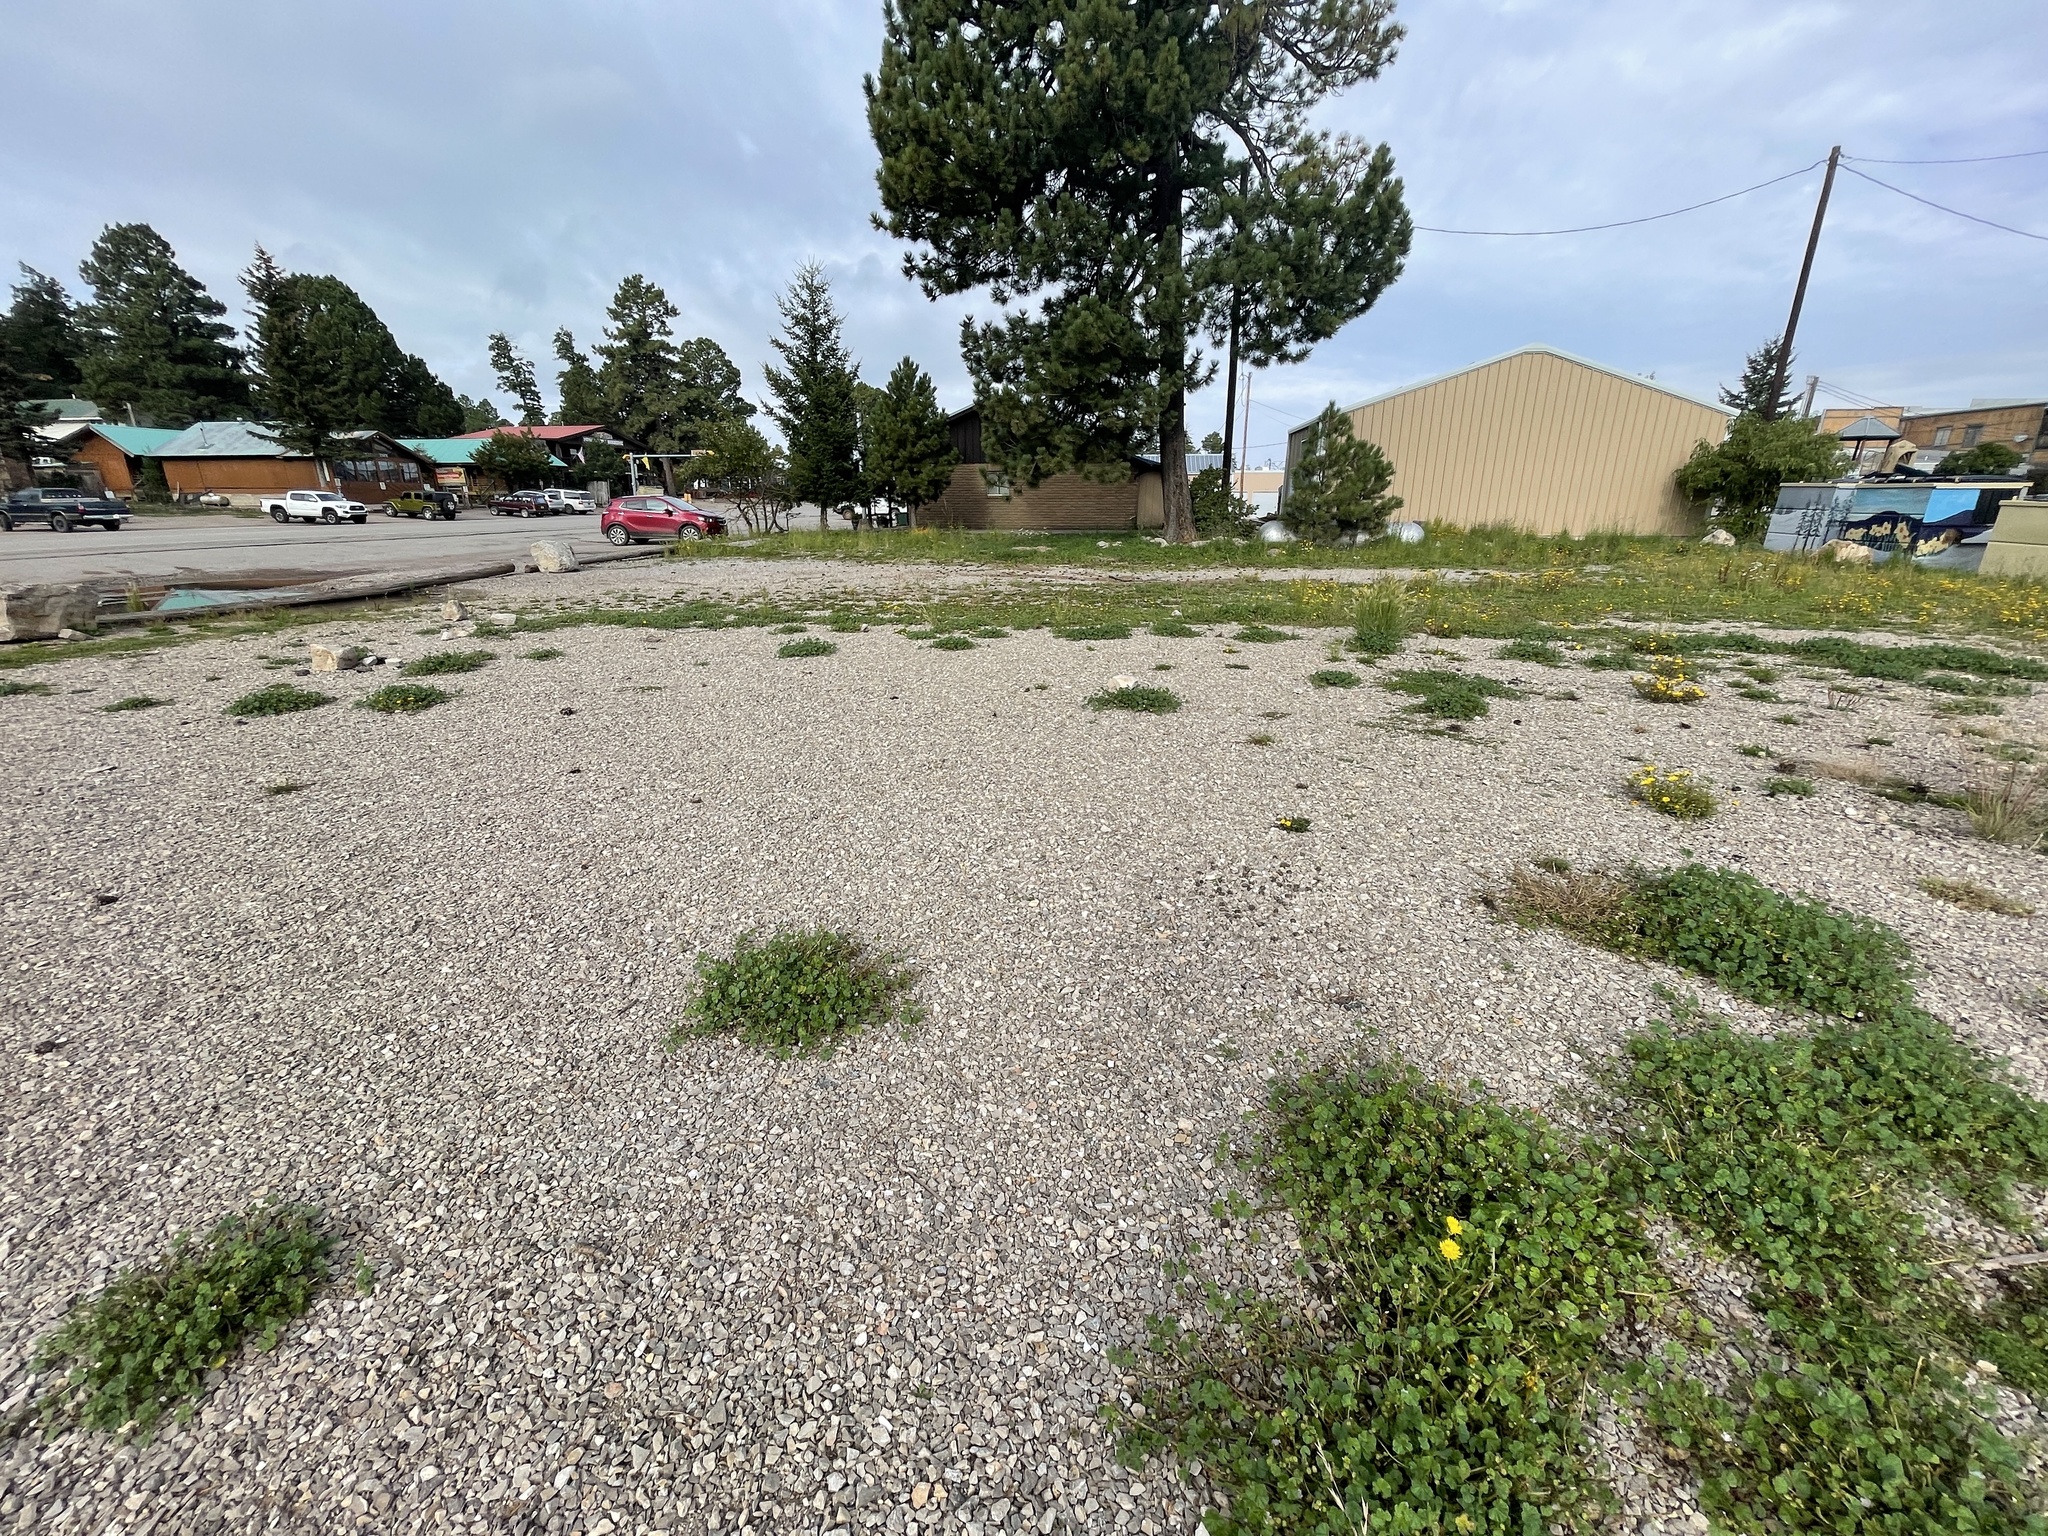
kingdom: Plantae
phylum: Tracheophyta
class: Magnoliopsida
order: Asterales
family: Asteraceae
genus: Baileya
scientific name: Baileya multiradiata
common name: Desert-marigold
